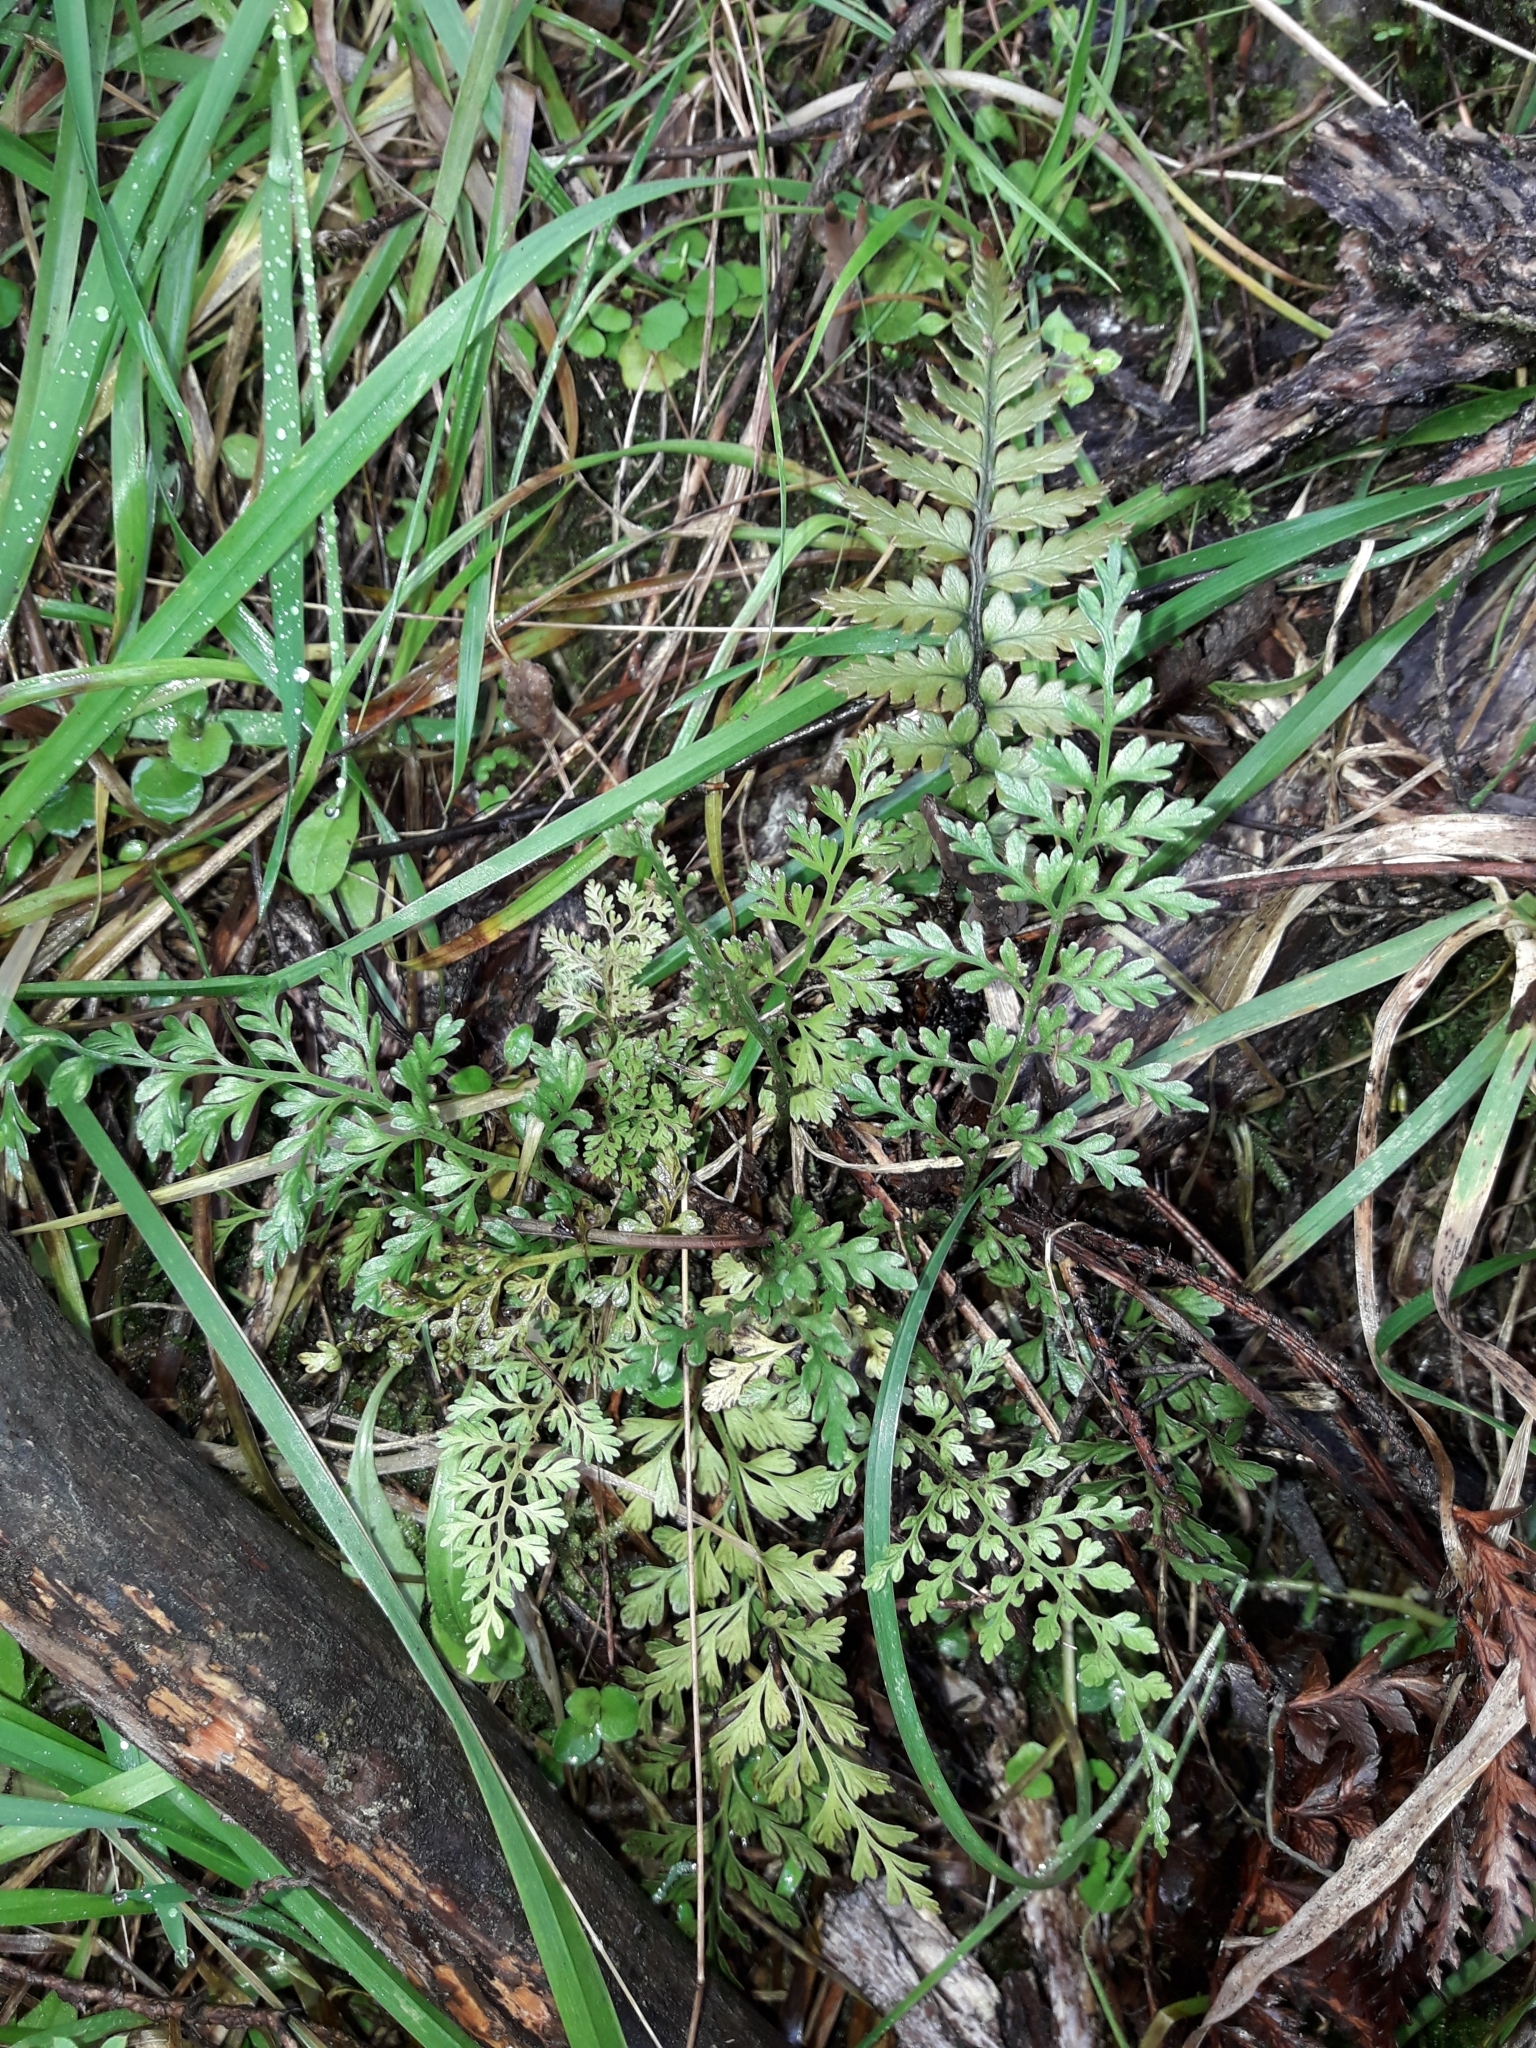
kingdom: Plantae
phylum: Tracheophyta
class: Polypodiopsida
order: Polypodiales
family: Aspleniaceae
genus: Asplenium
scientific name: Asplenium hookerianum
